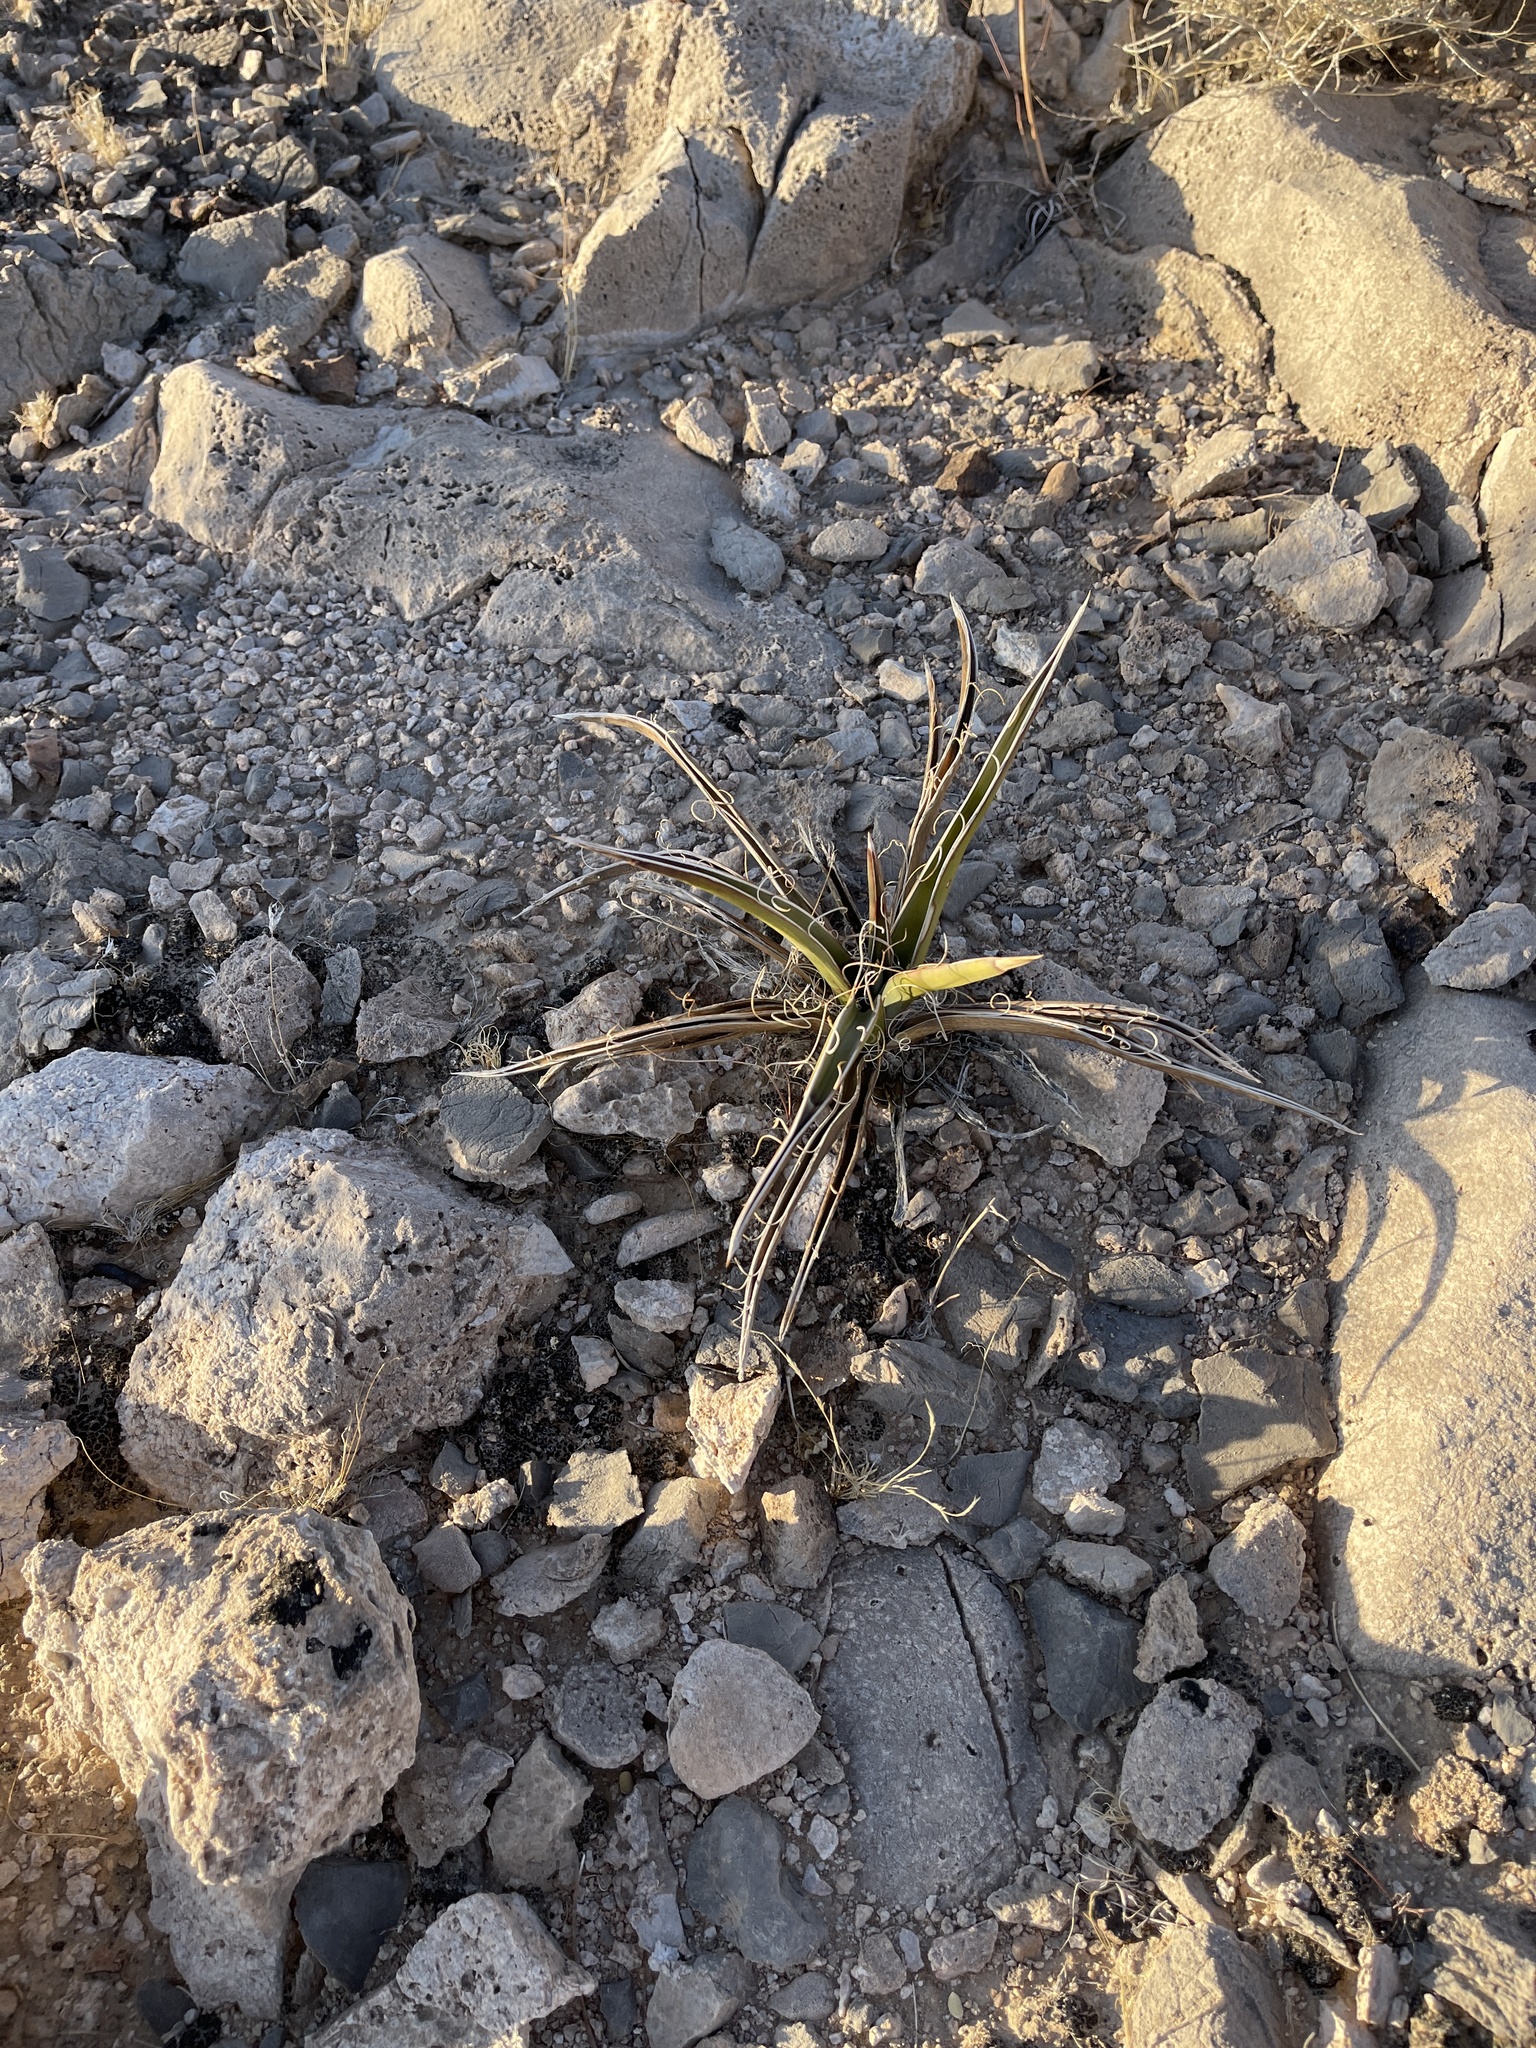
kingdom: Plantae
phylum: Tracheophyta
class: Liliopsida
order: Asparagales
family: Asparagaceae
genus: Yucca
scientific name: Yucca baccata
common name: Banana yucca
